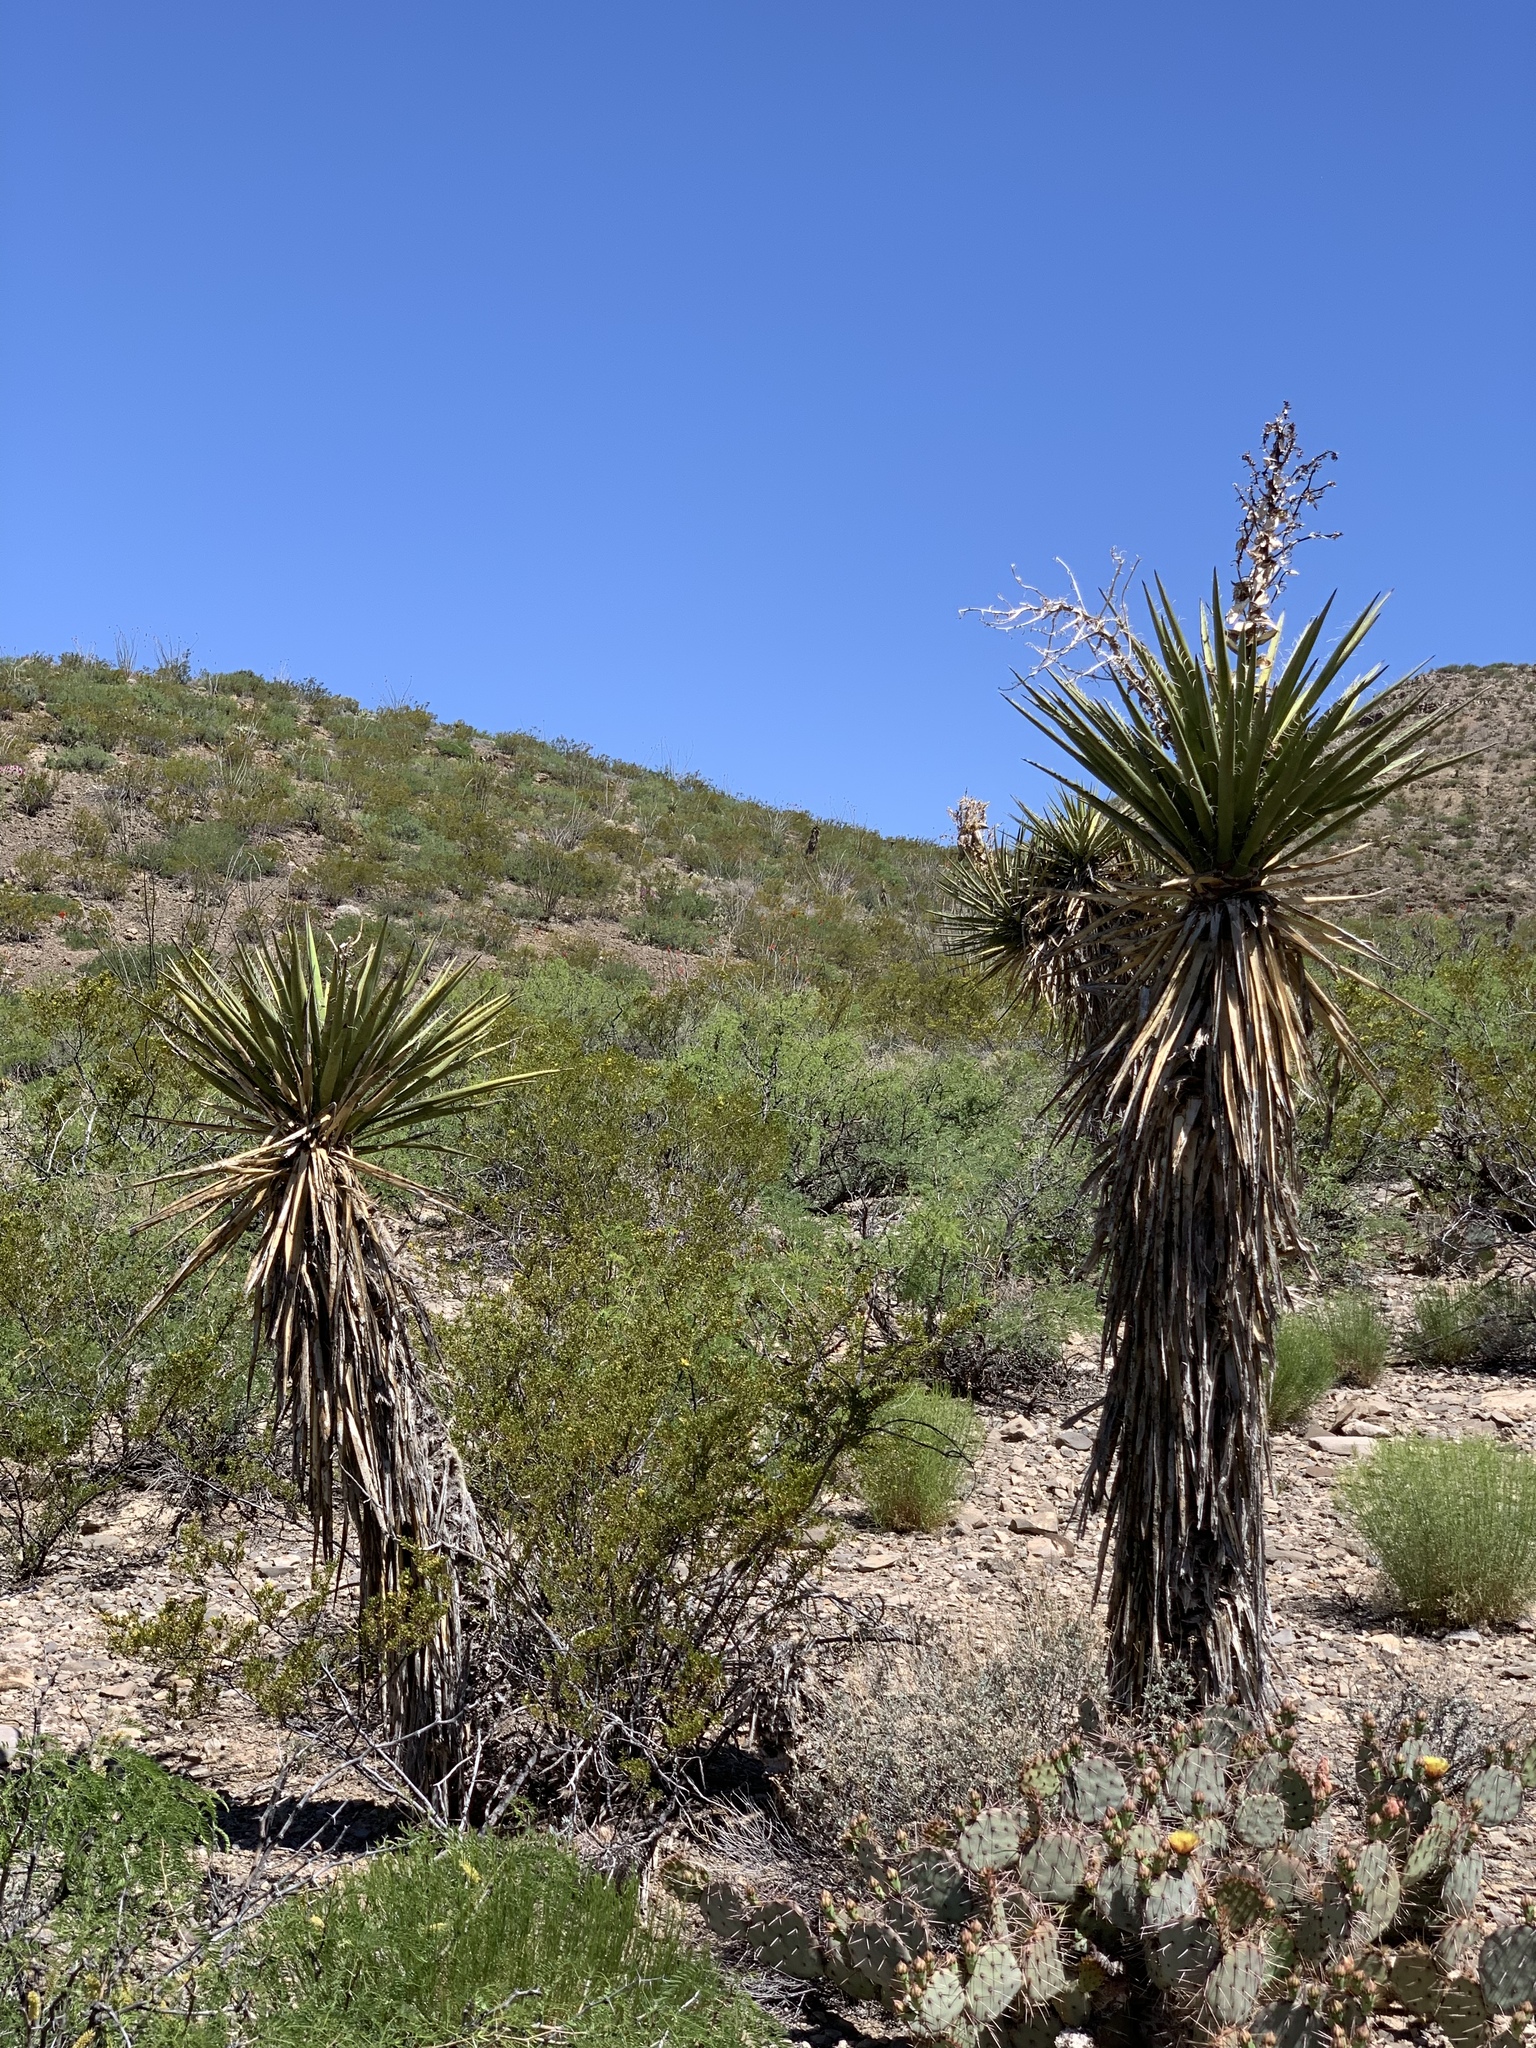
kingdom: Plantae
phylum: Tracheophyta
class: Liliopsida
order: Asparagales
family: Asparagaceae
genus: Yucca
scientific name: Yucca treculiana
